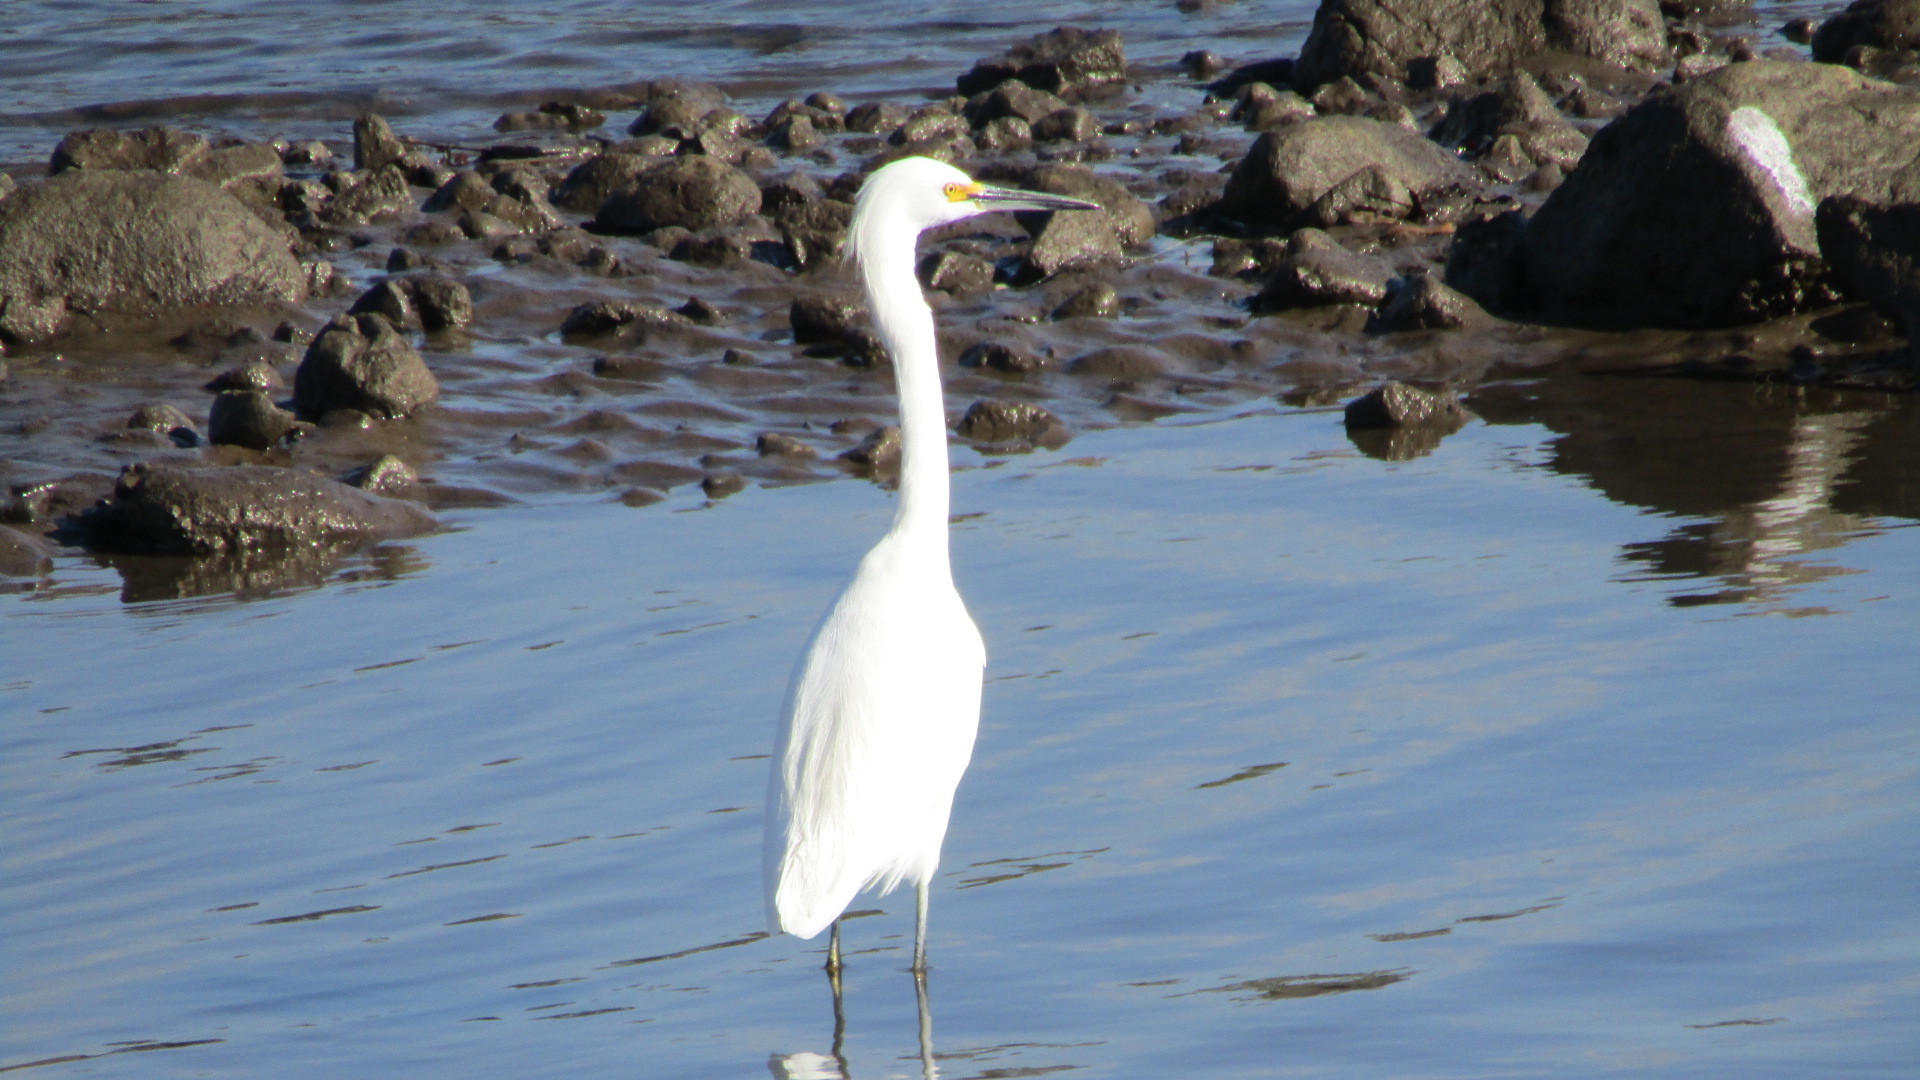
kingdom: Animalia
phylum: Chordata
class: Aves
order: Pelecaniformes
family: Ardeidae
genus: Egretta
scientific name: Egretta thula
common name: Snowy egret
